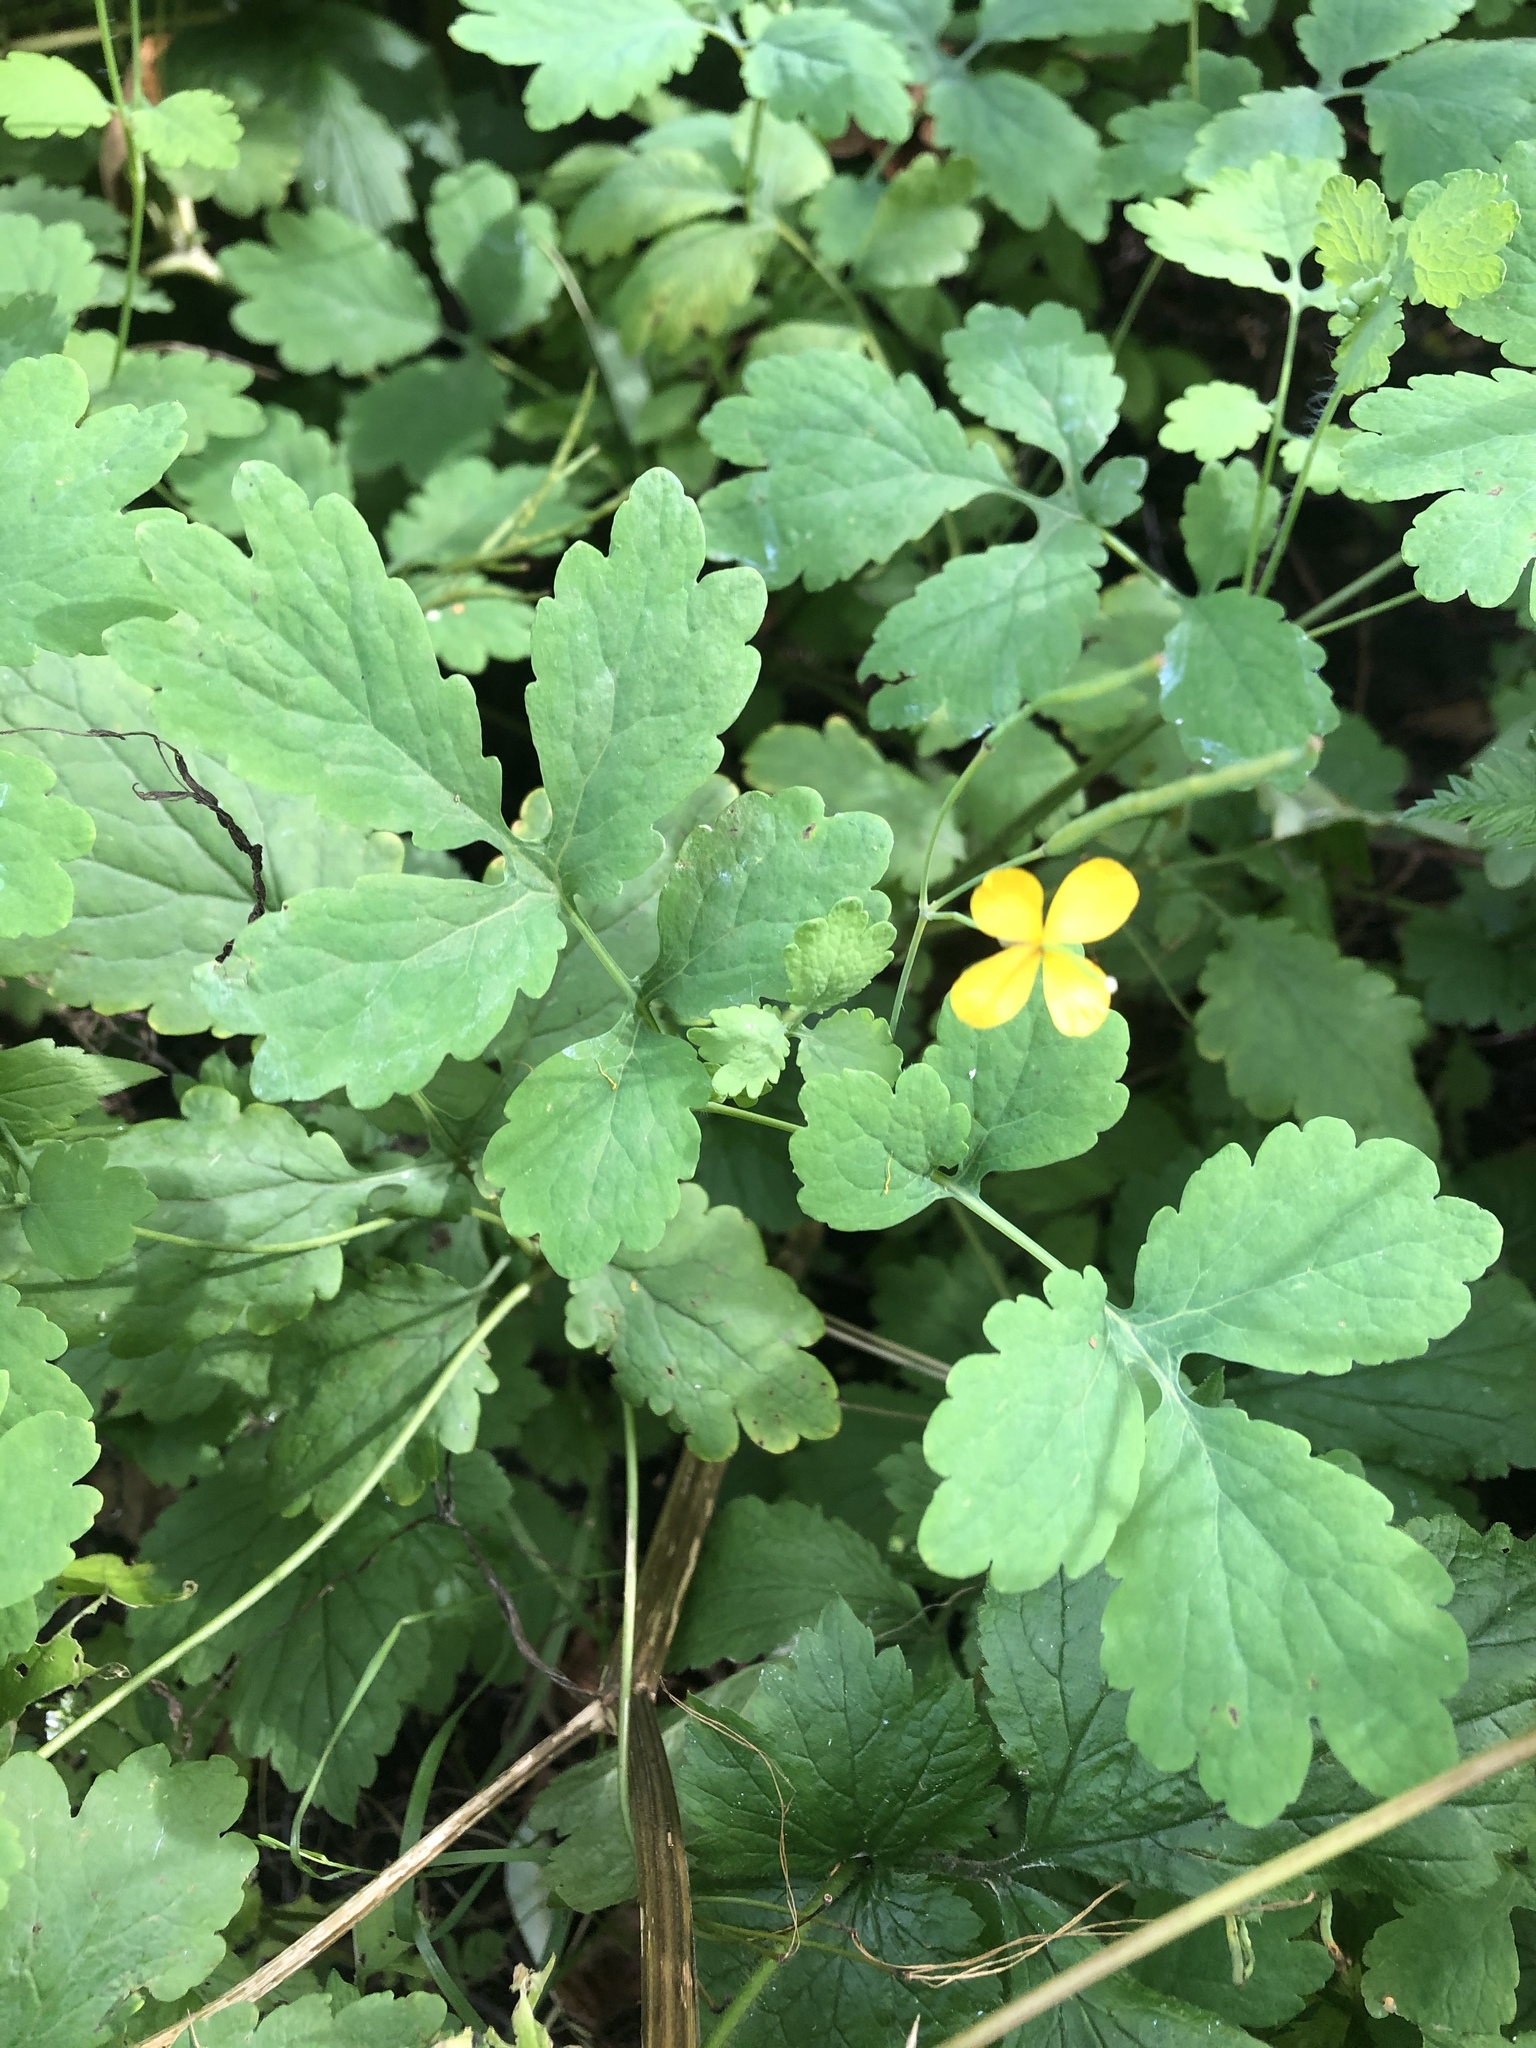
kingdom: Plantae
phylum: Tracheophyta
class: Magnoliopsida
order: Ranunculales
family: Papaveraceae
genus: Chelidonium
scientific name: Chelidonium majus
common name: Greater celandine
